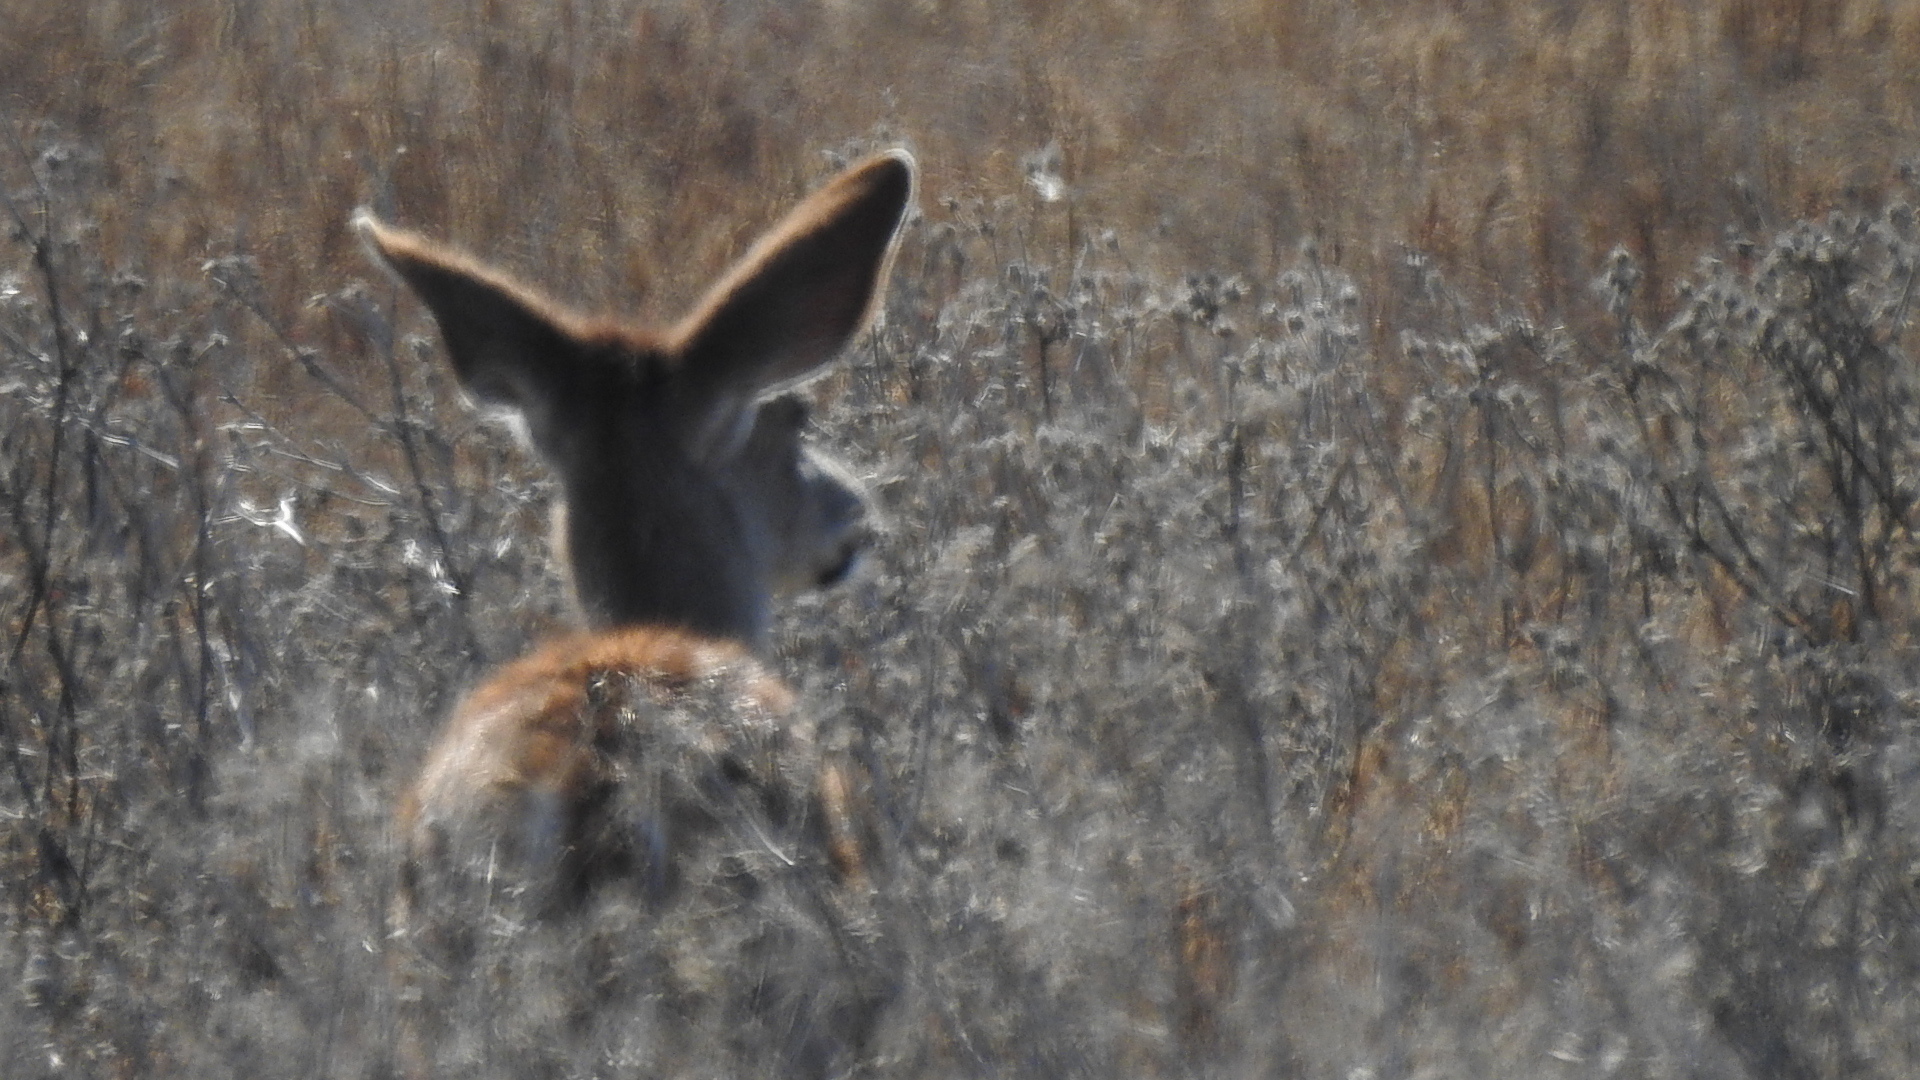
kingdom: Animalia
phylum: Chordata
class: Mammalia
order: Artiodactyla
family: Cervidae
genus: Odocoileus
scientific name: Odocoileus hemionus
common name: Mule deer
